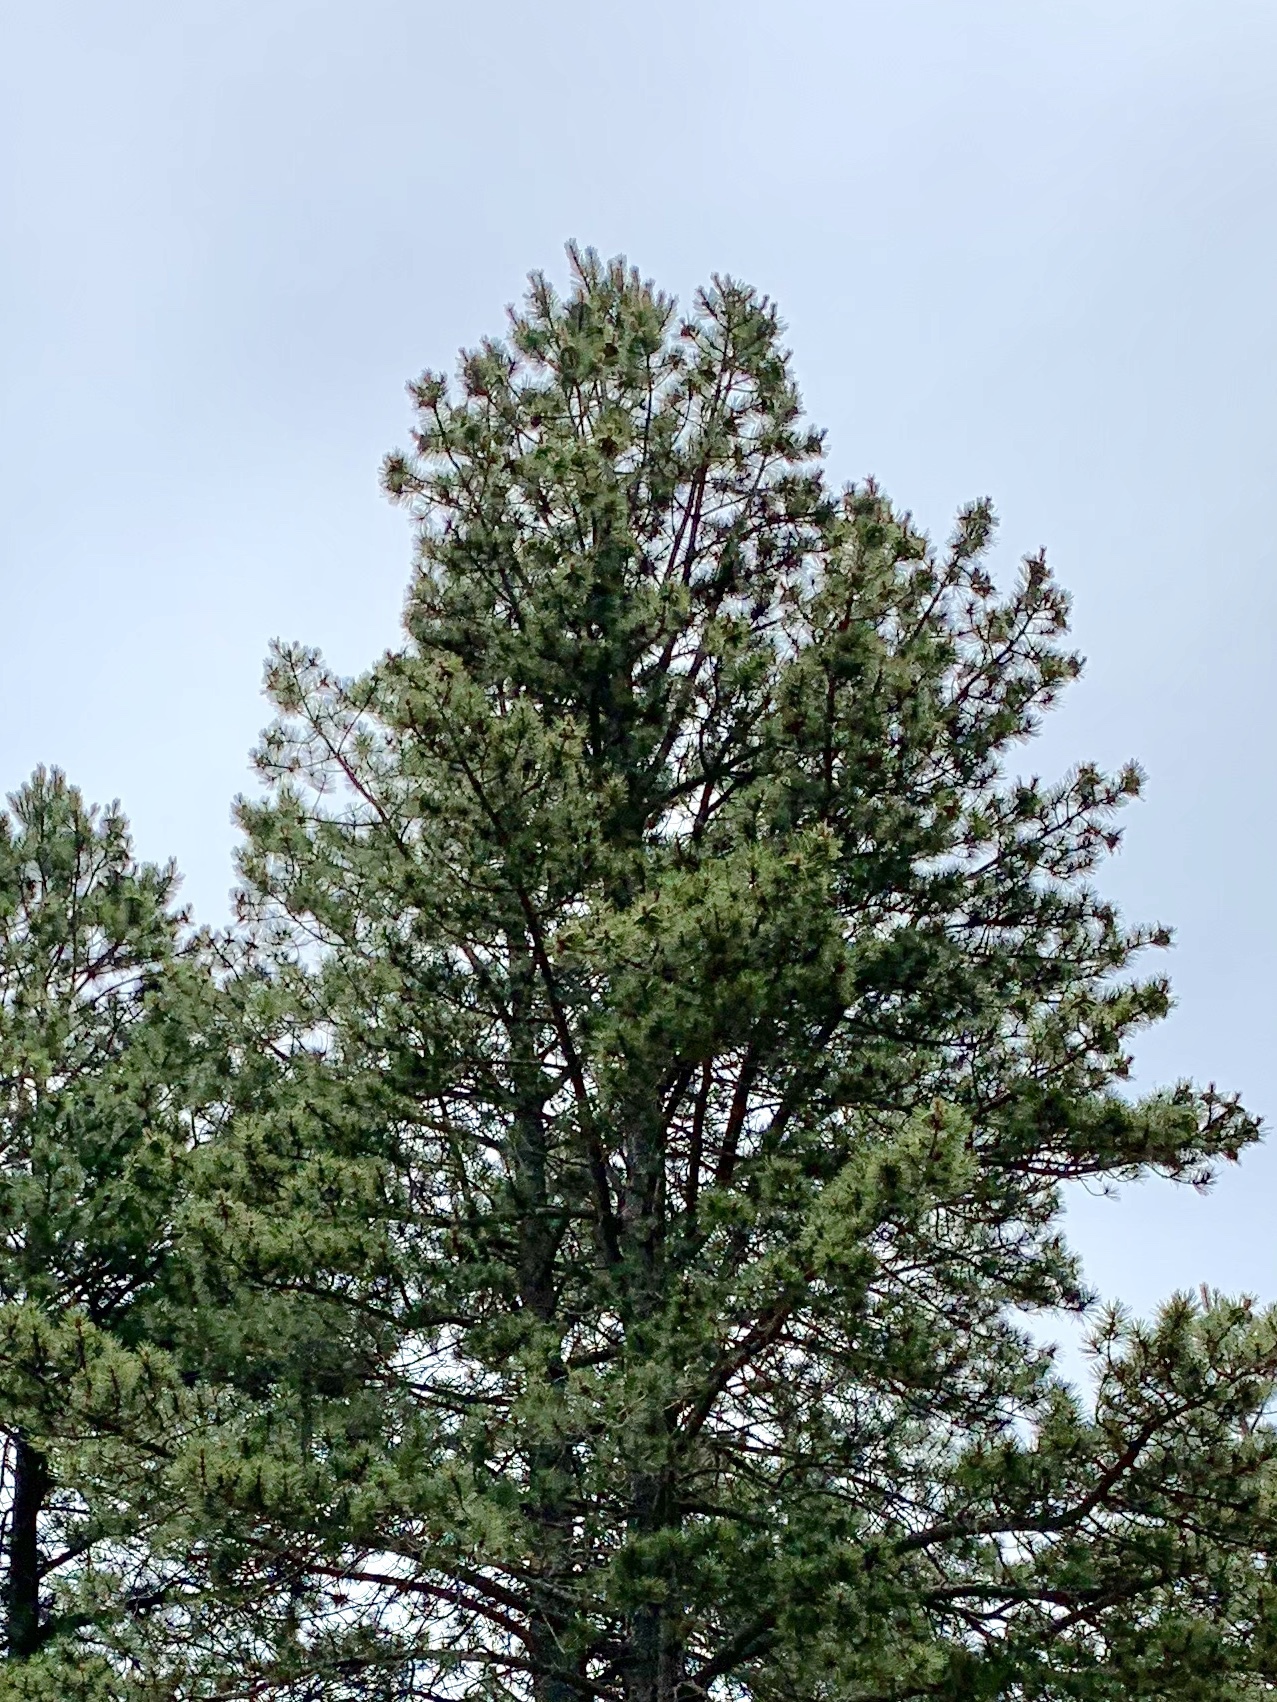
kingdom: Plantae
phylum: Tracheophyta
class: Pinopsida
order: Pinales
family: Pinaceae
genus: Pinus
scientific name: Pinus ponderosa
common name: Western yellow-pine
